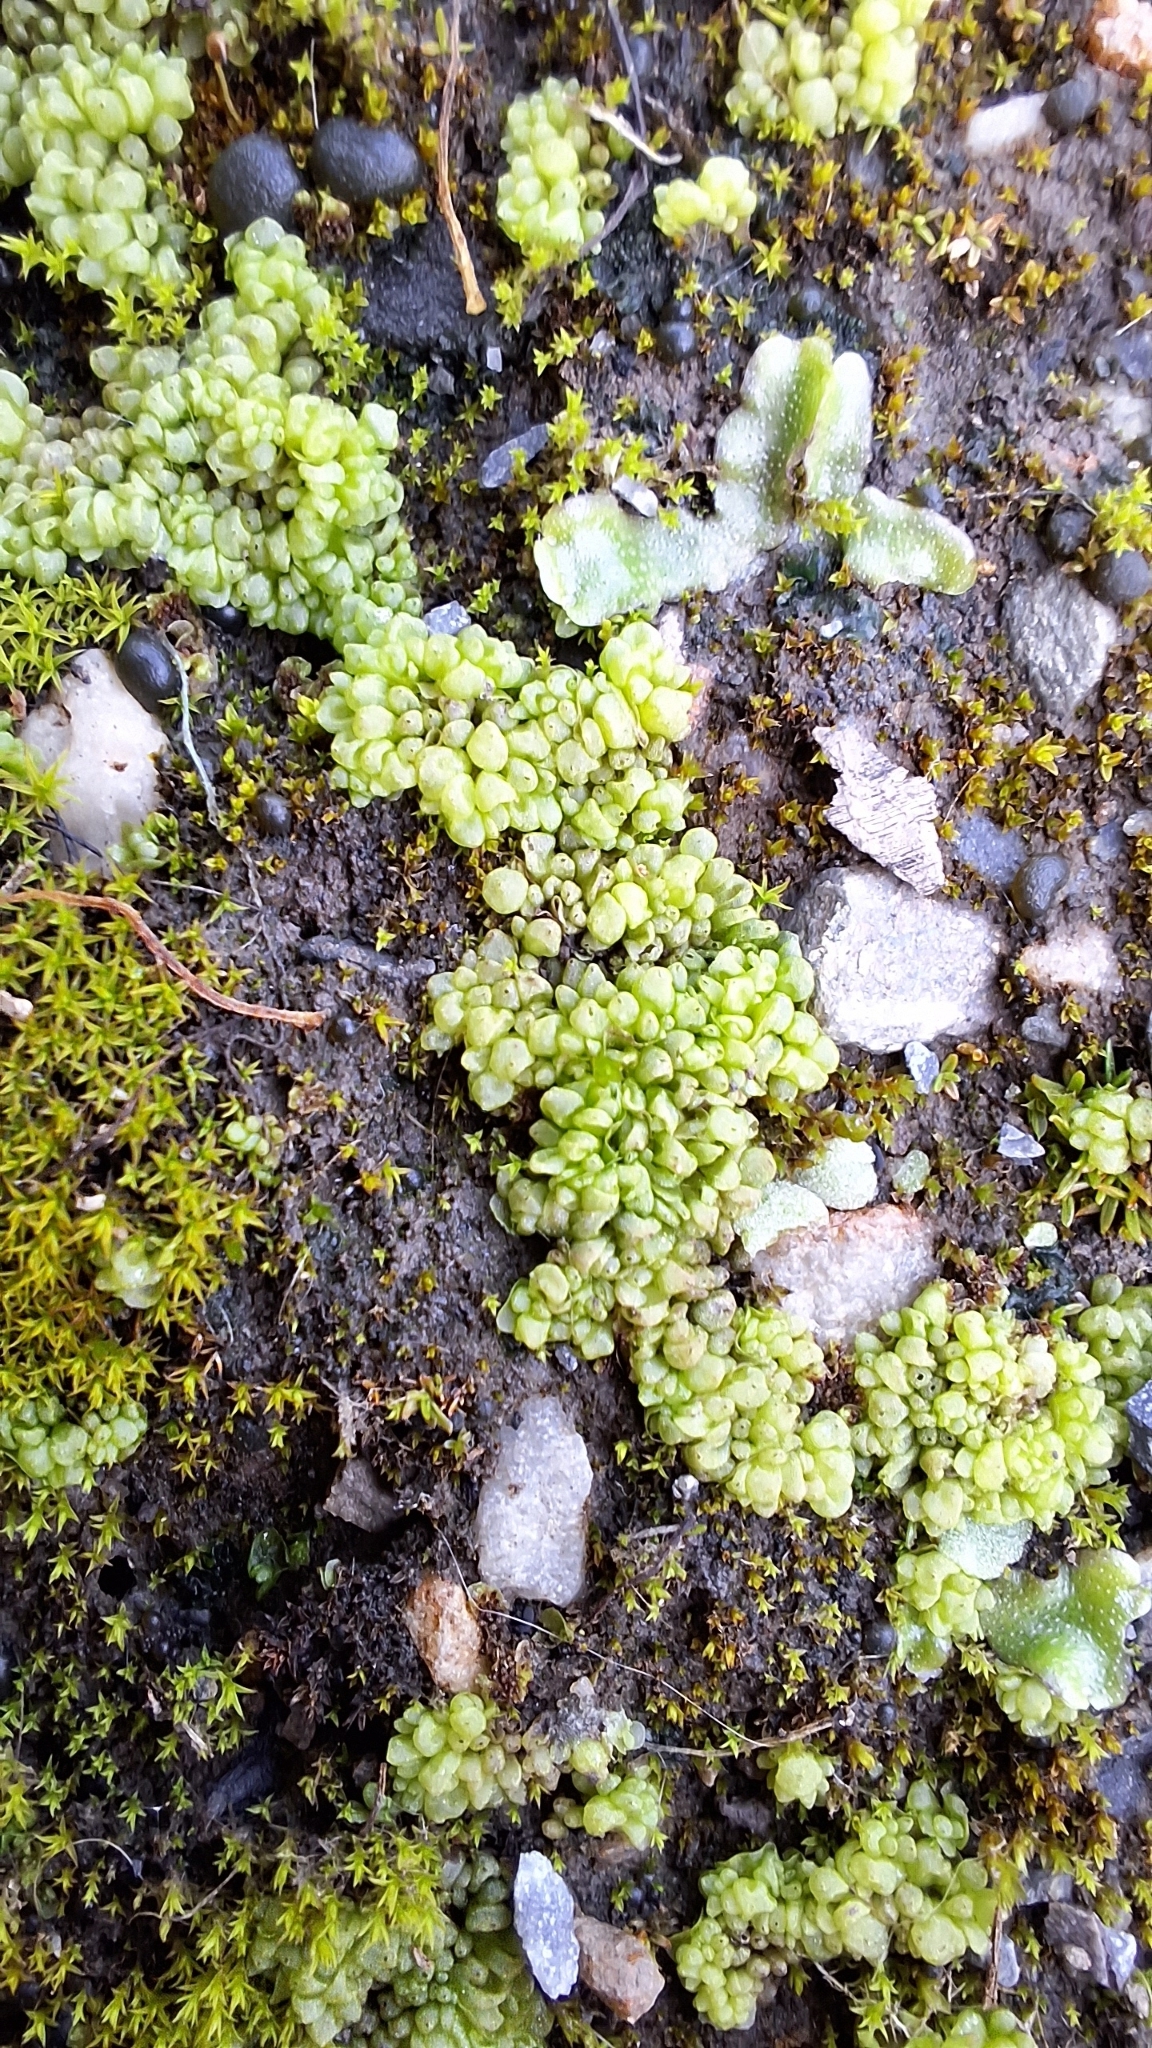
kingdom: Plantae
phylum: Marchantiophyta
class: Marchantiopsida
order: Sphaerocarpales
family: Sphaerocarpaceae
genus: Sphaerocarpos
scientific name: Sphaerocarpos texanus
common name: Texas balloonwort
